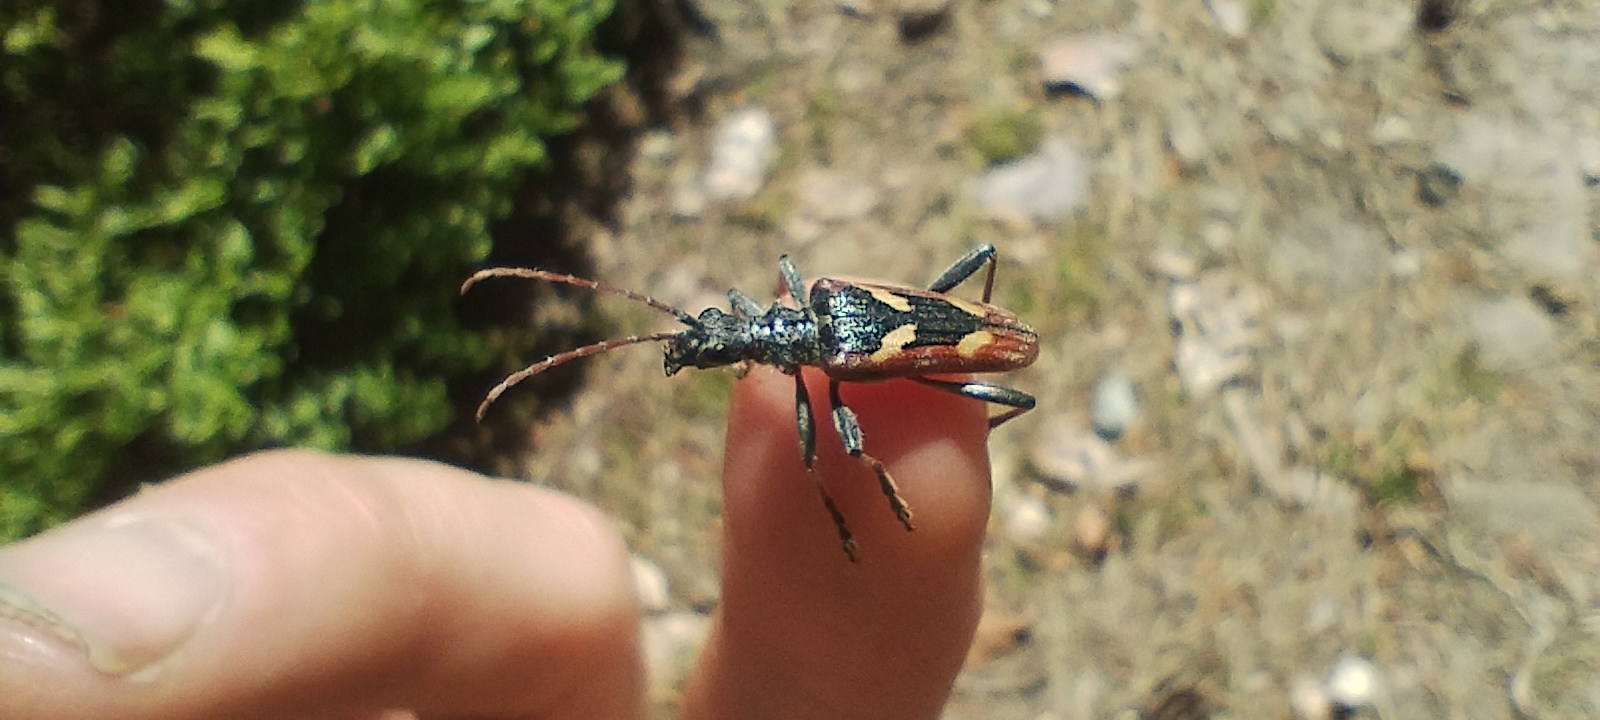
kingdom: Animalia
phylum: Arthropoda
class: Insecta
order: Coleoptera
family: Cerambycidae
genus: Rhagium
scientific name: Rhagium bifasciatum
